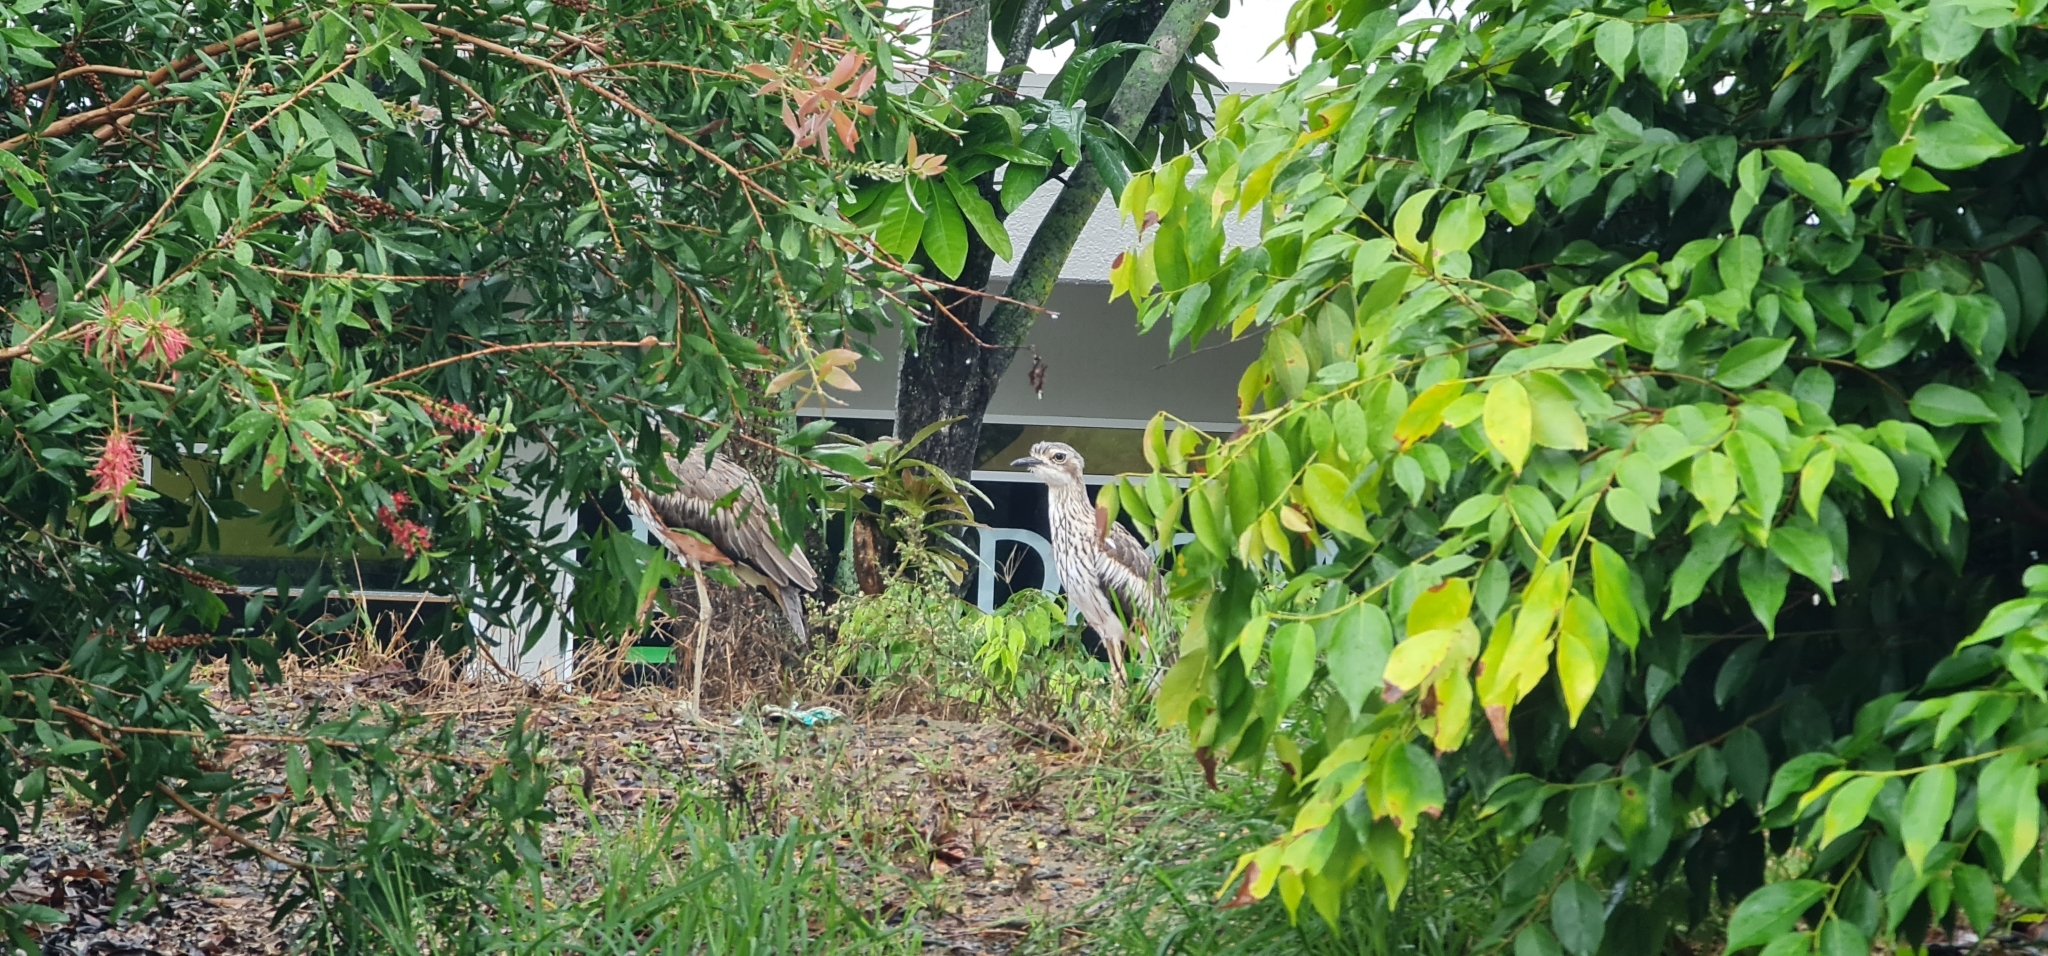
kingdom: Animalia
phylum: Chordata
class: Aves
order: Charadriiformes
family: Burhinidae
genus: Burhinus
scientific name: Burhinus grallarius
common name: Bush stone-curlew
